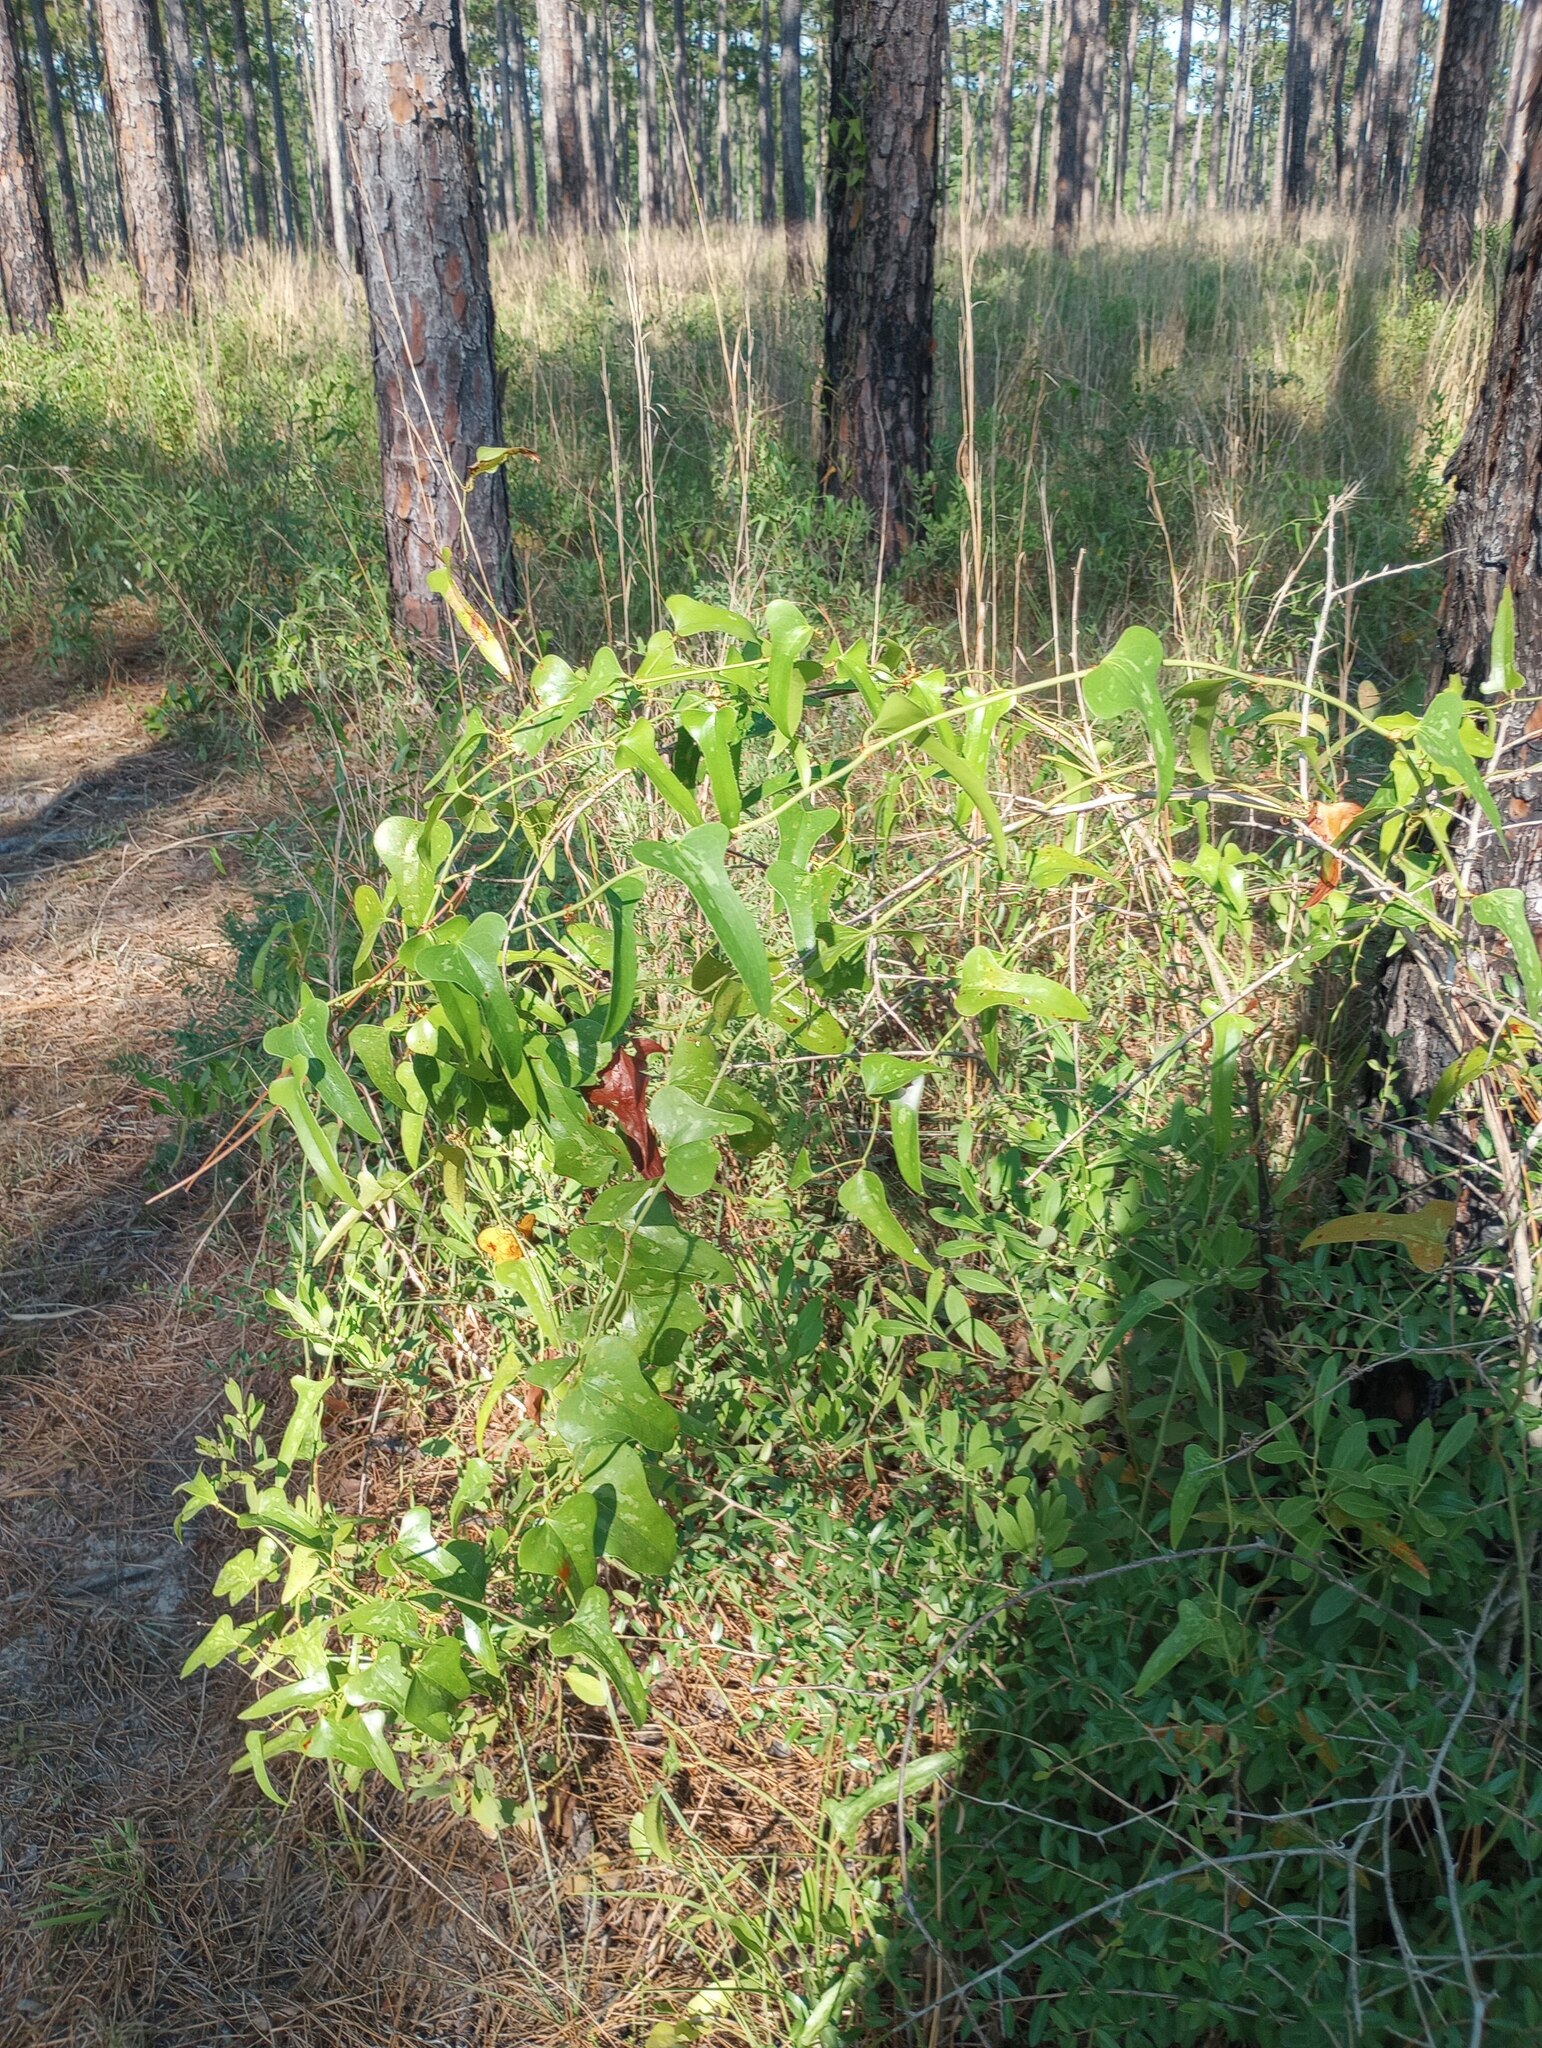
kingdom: Plantae
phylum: Tracheophyta
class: Liliopsida
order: Liliales
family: Smilacaceae
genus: Smilax
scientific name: Smilax bona-nox
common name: Catbrier
